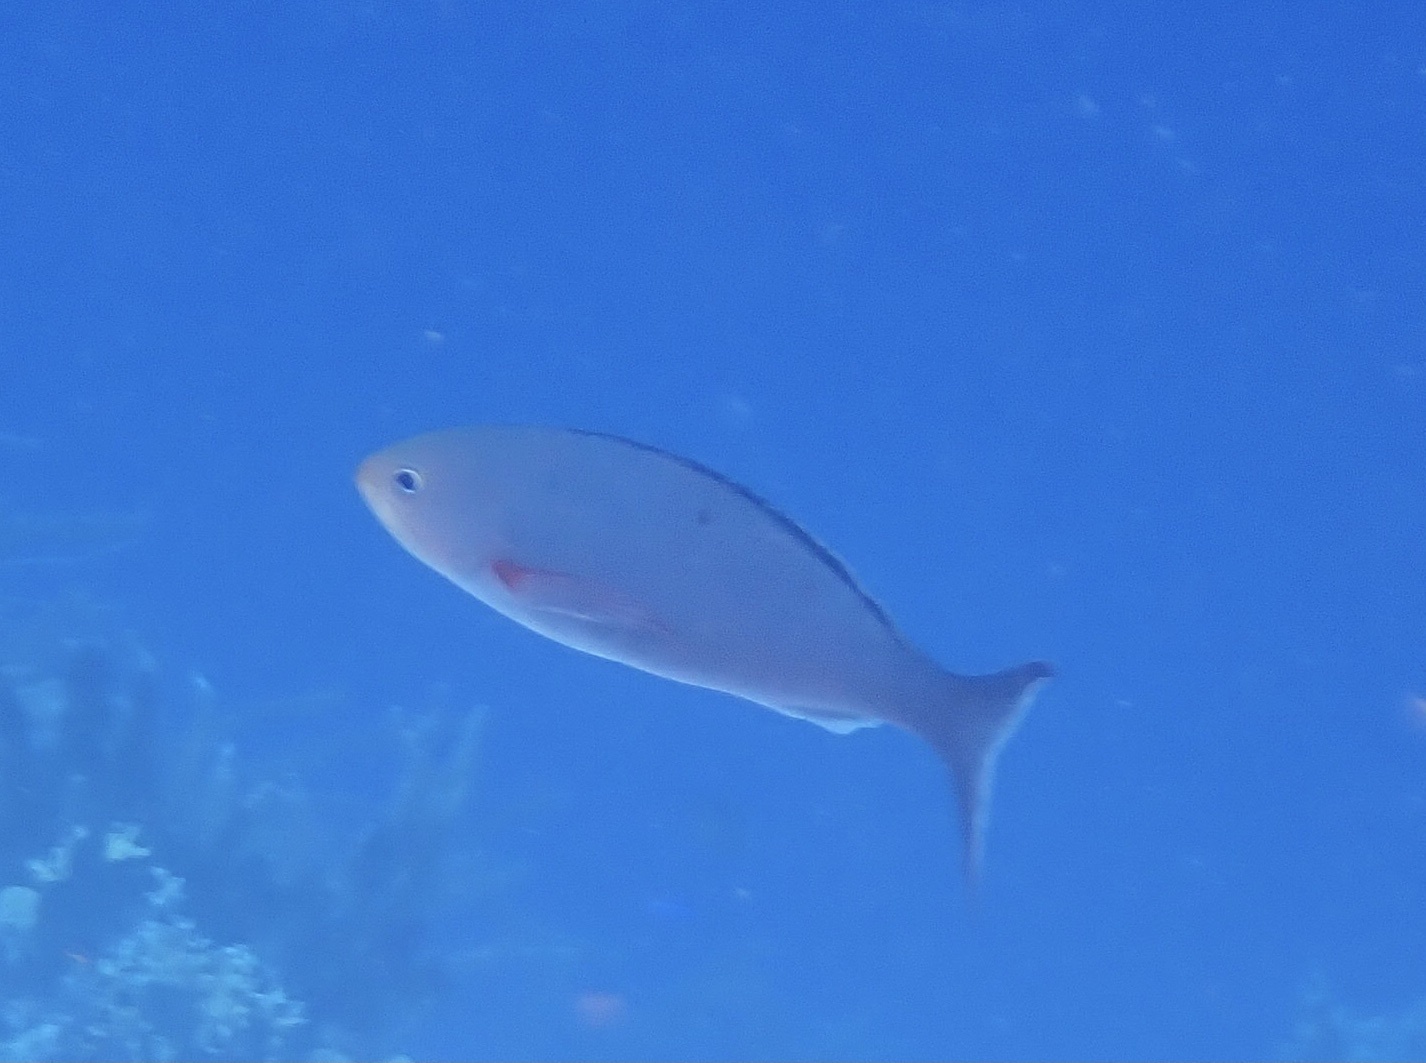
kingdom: Animalia
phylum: Chordata
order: Perciformes
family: Serranidae
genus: Paranthias
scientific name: Paranthias furcifer
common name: Creole-fish
